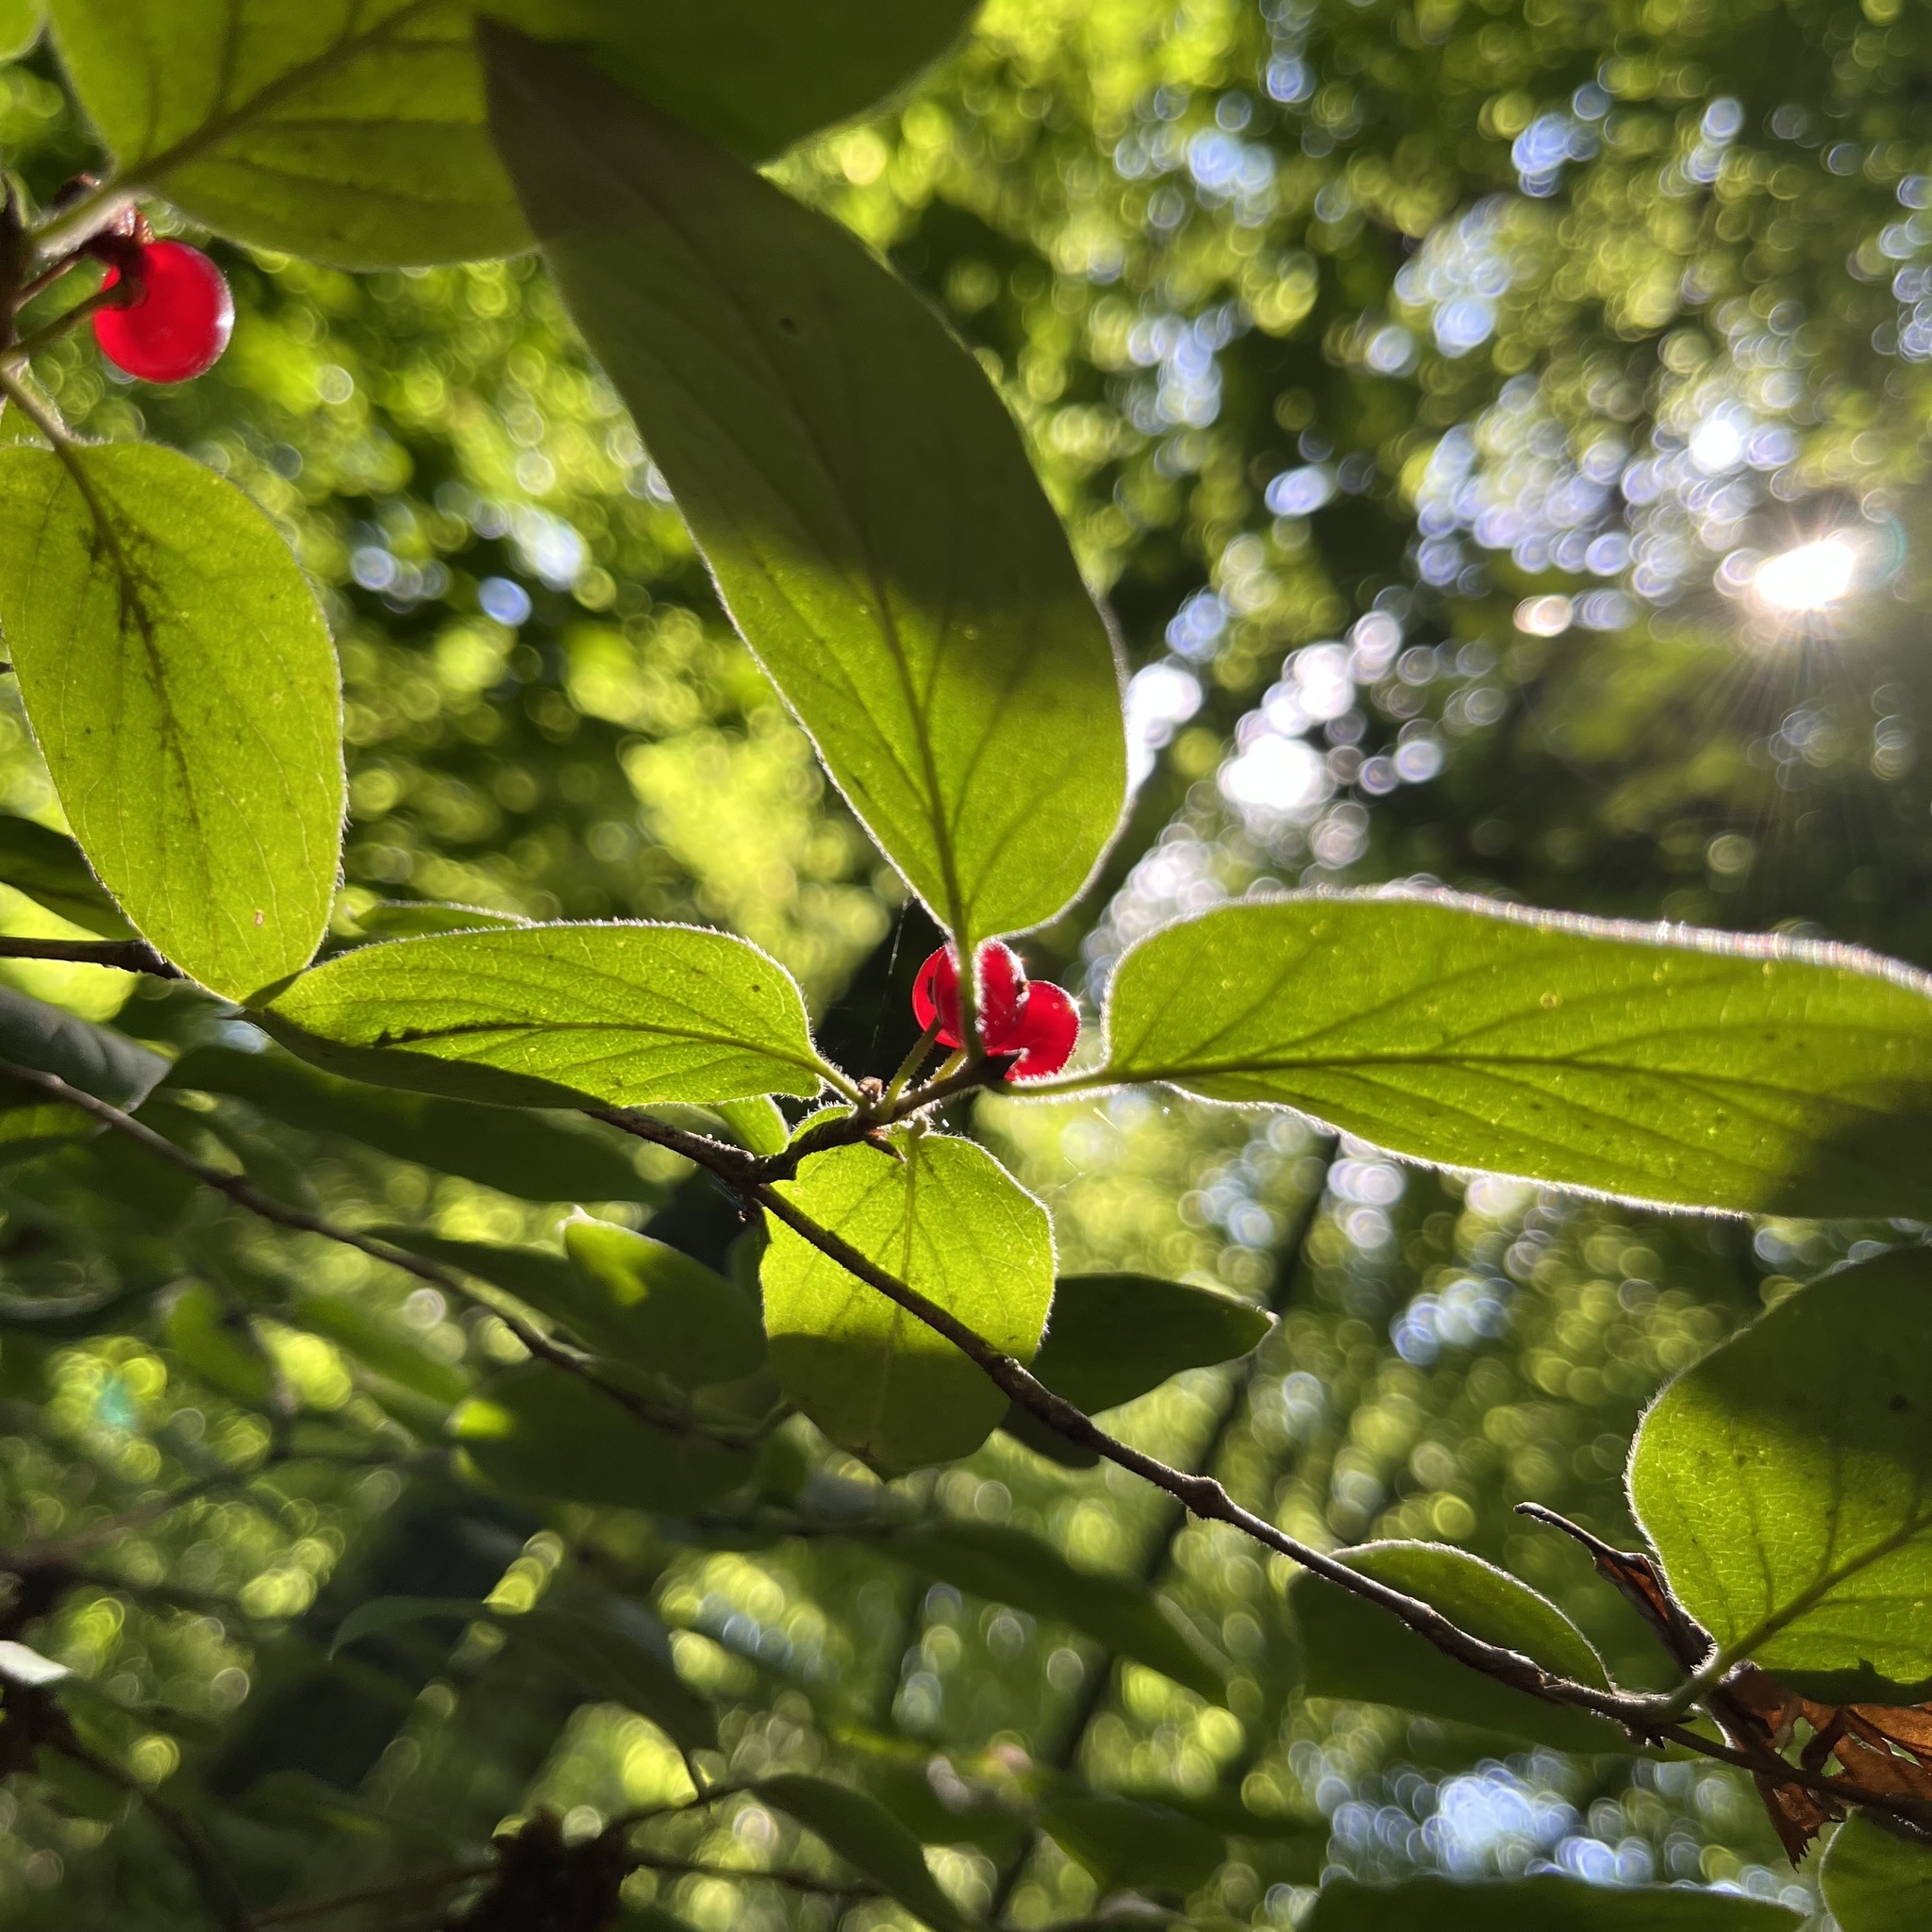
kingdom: Plantae
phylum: Tracheophyta
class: Magnoliopsida
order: Dipsacales
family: Caprifoliaceae
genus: Lonicera
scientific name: Lonicera xylosteum
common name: Fly honeysuckle
